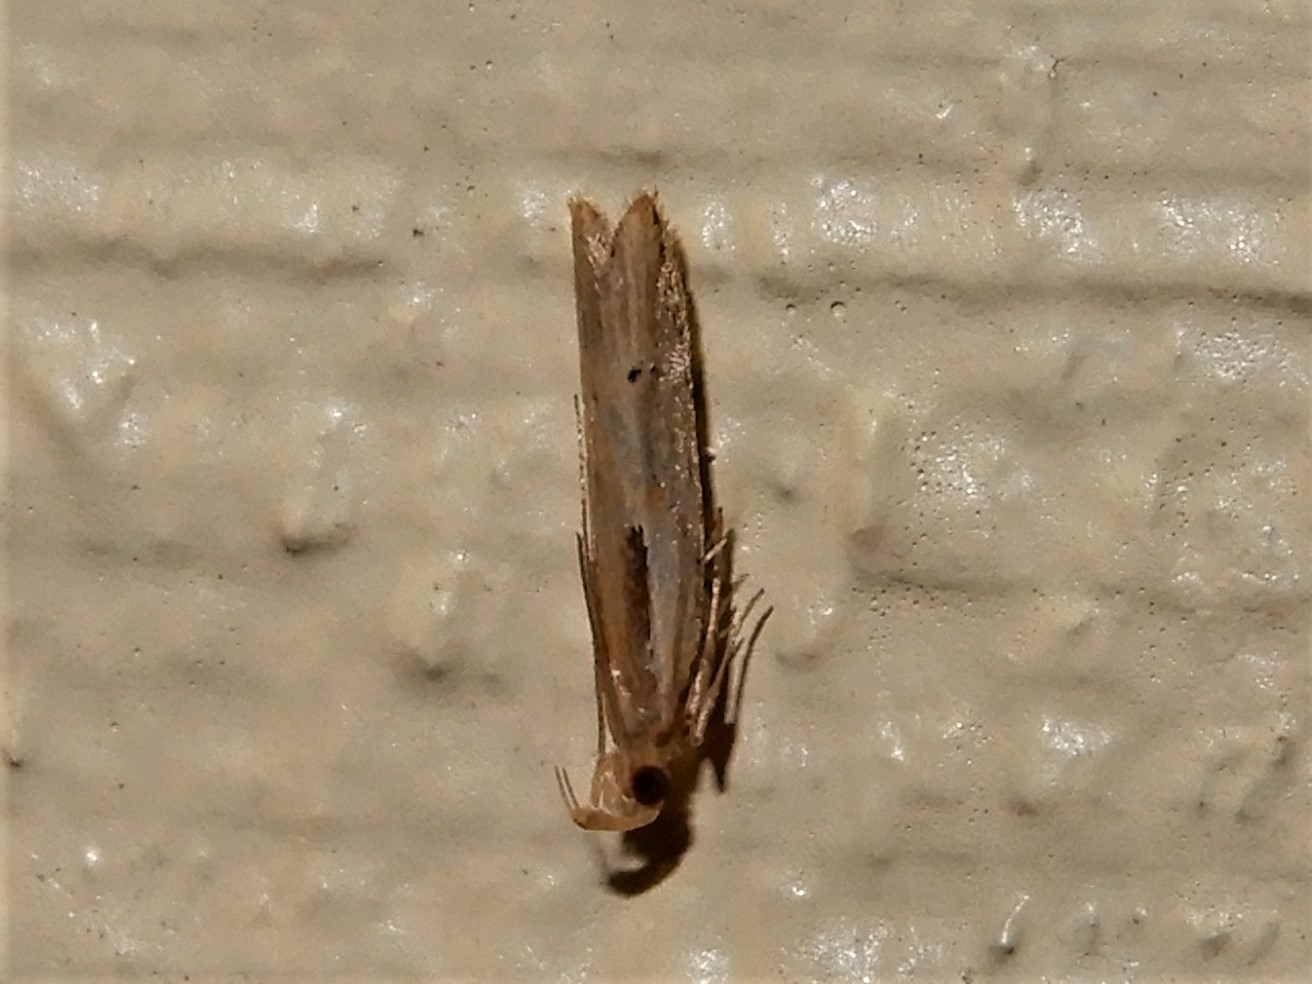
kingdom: Animalia
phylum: Arthropoda
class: Insecta
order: Lepidoptera
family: Depressariidae
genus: Eutorna
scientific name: Eutorna symmorpha
